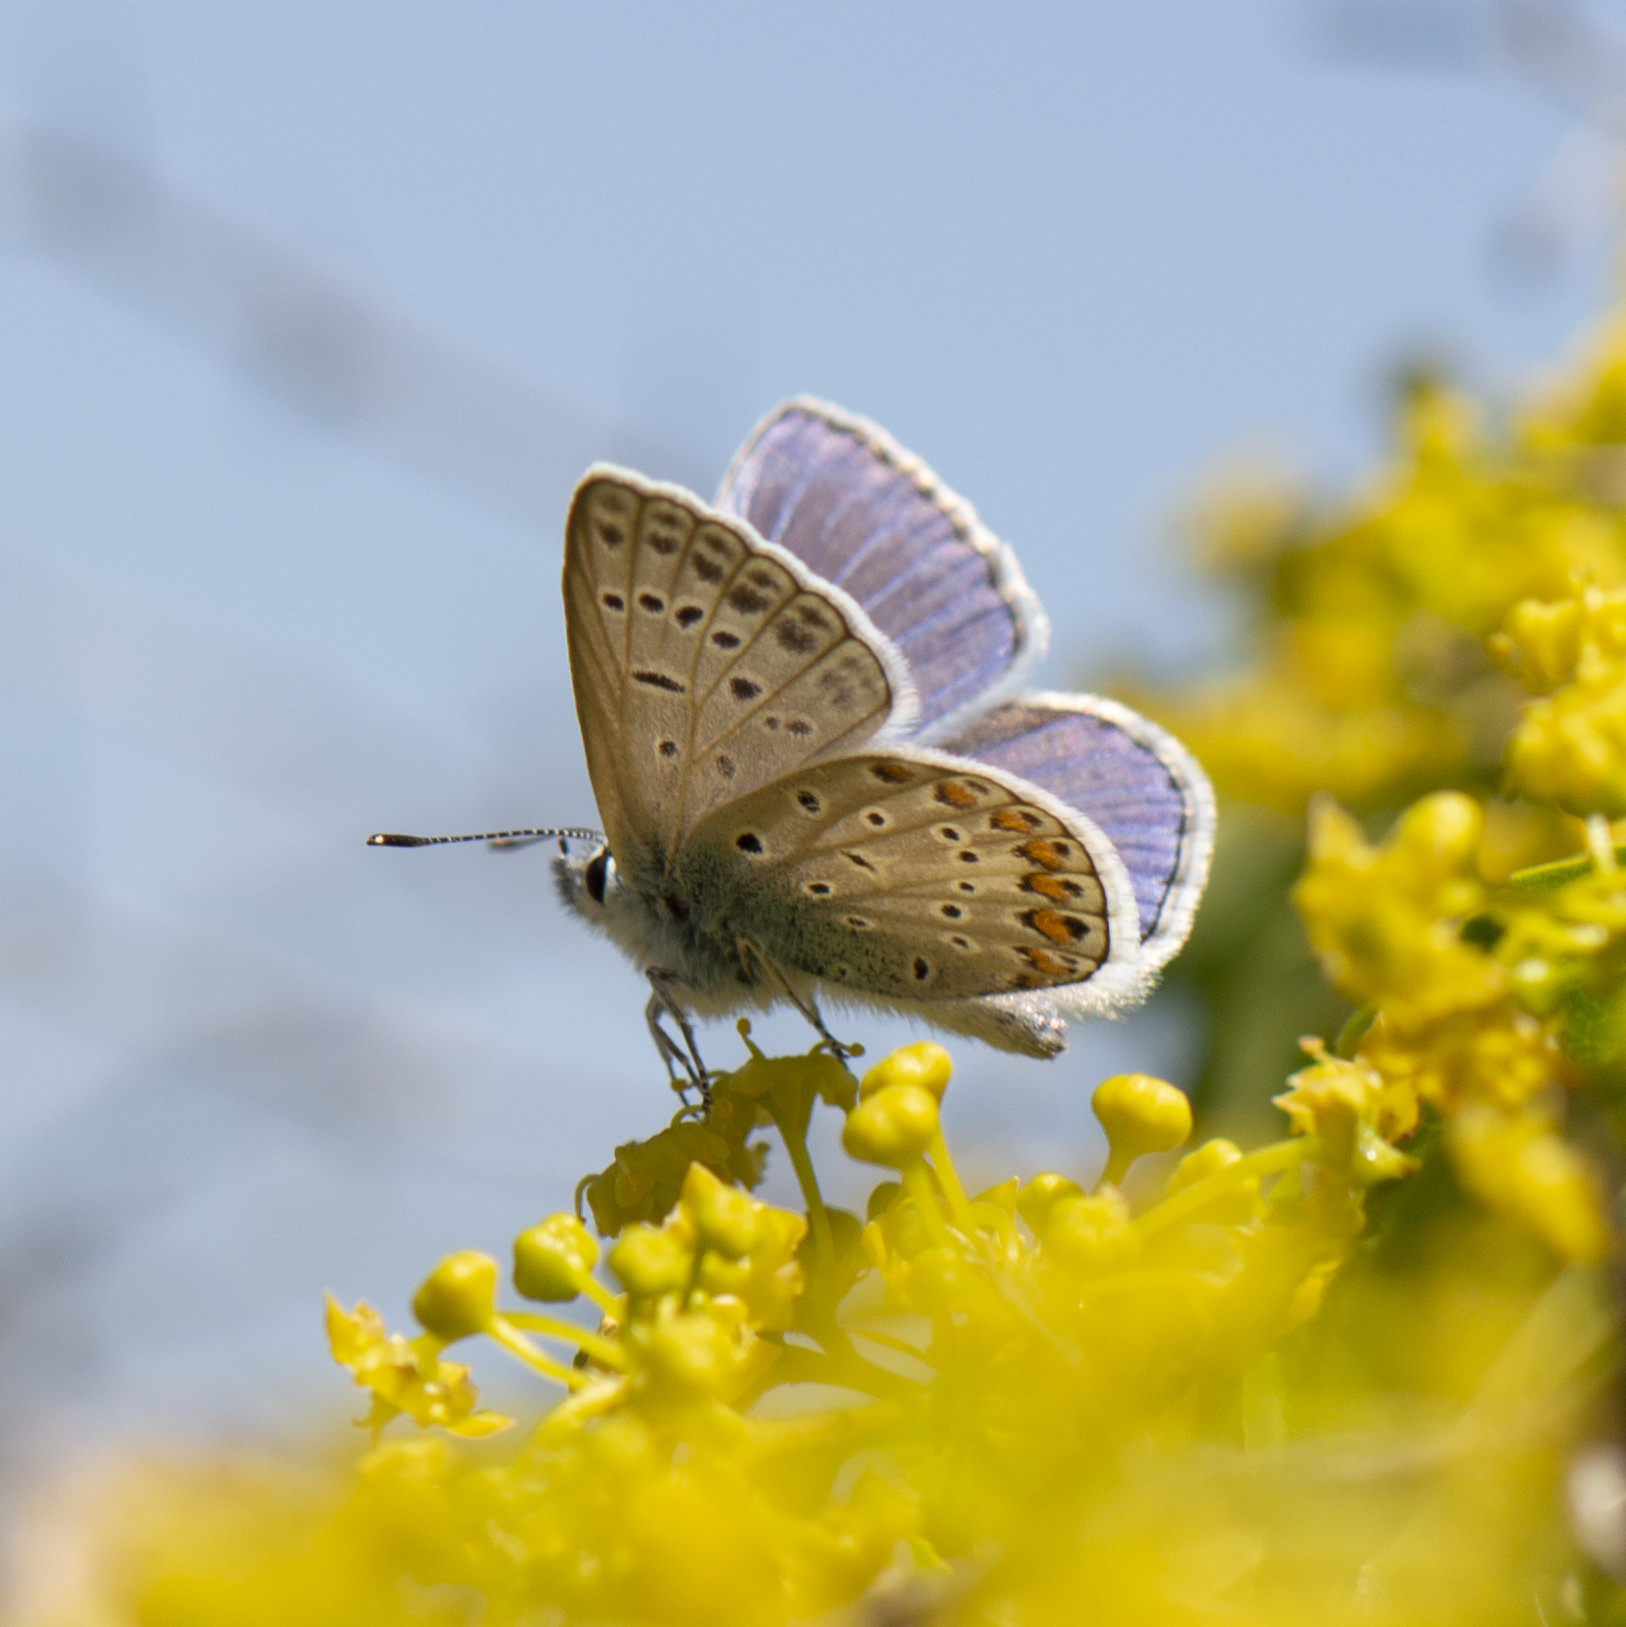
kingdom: Animalia
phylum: Arthropoda
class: Insecta
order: Lepidoptera
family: Lycaenidae
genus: Polyommatus
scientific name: Polyommatus icarus
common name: Common blue
